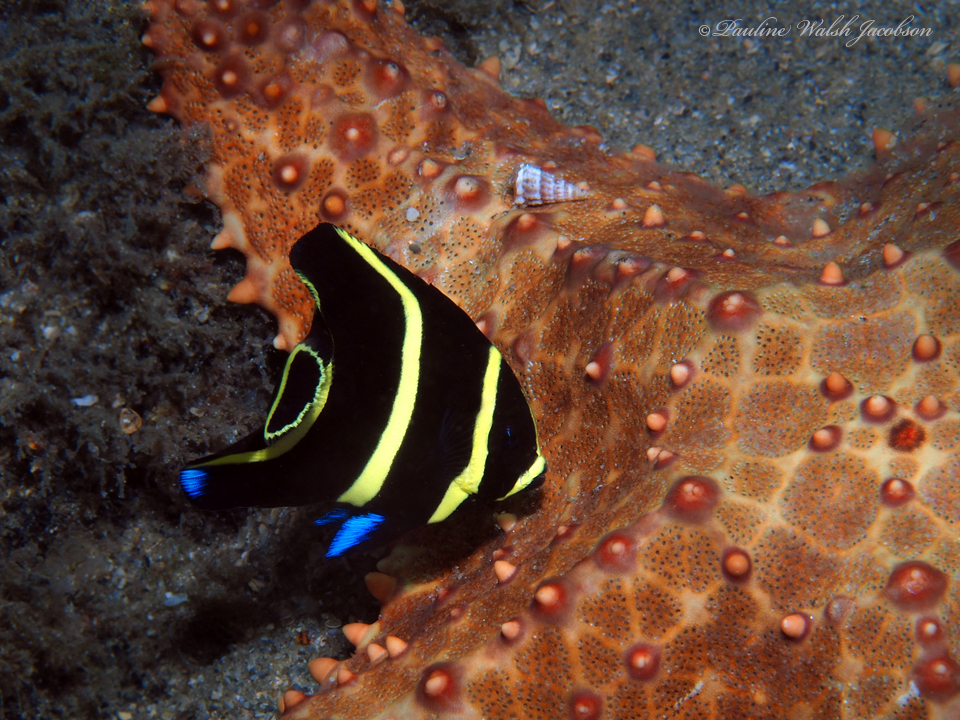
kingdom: Animalia
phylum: Chordata
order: Perciformes
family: Pomacanthidae
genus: Pomacanthus
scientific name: Pomacanthus paru
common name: French angelfish
